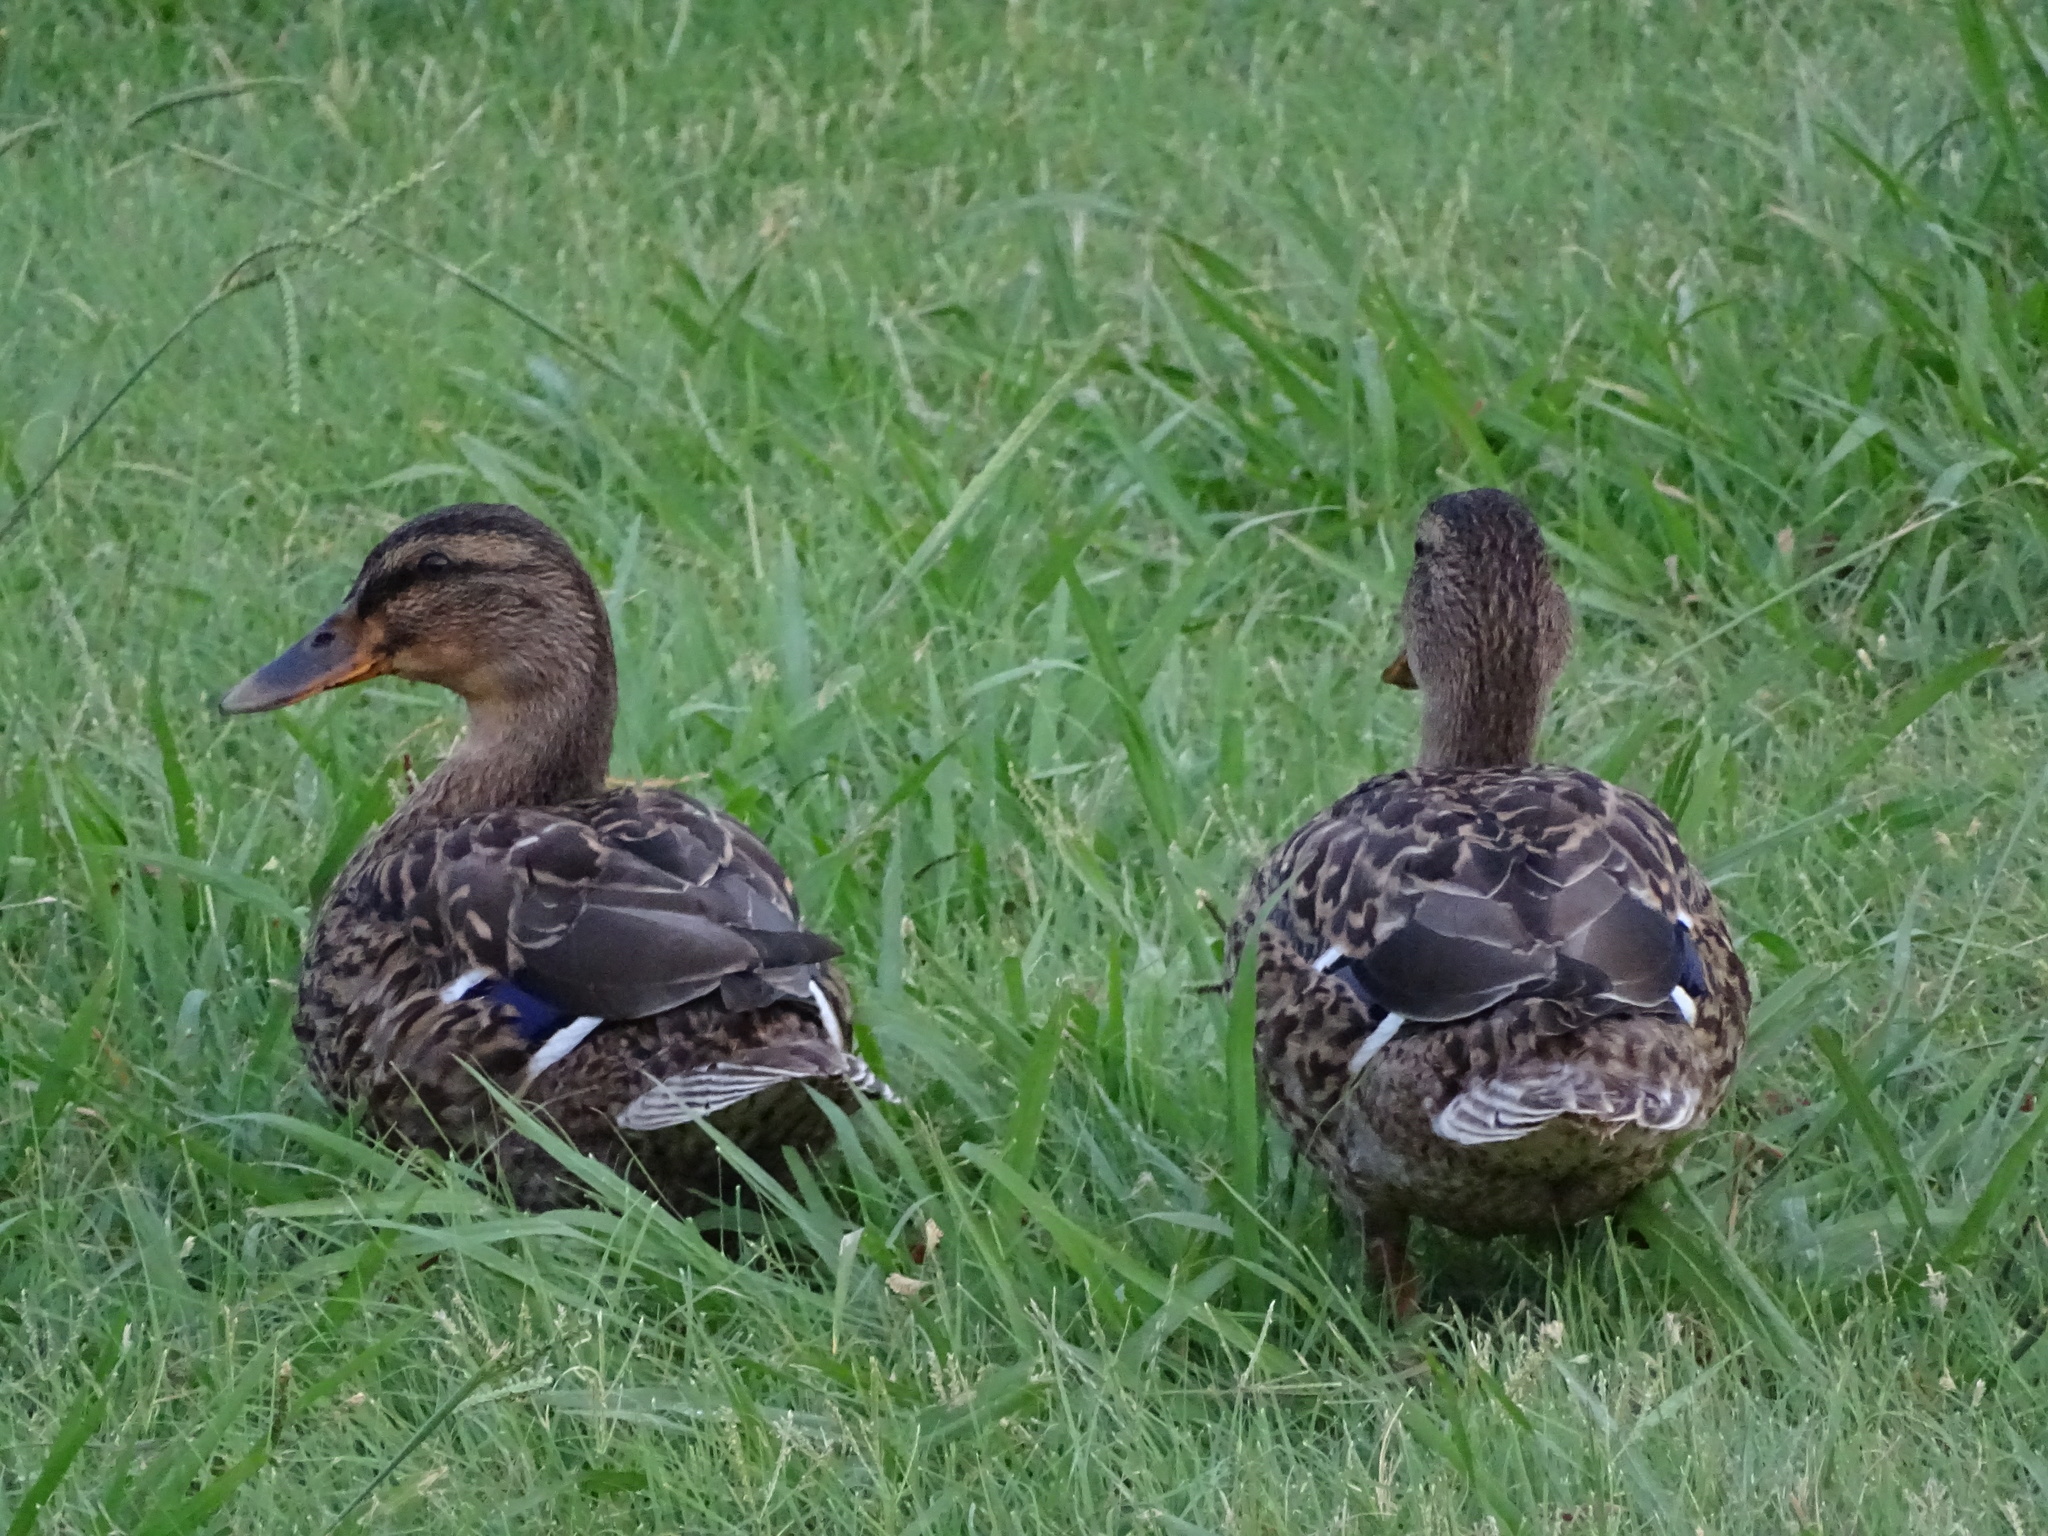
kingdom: Animalia
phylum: Chordata
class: Aves
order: Anseriformes
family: Anatidae
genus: Anas
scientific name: Anas platyrhynchos
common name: Mallard
